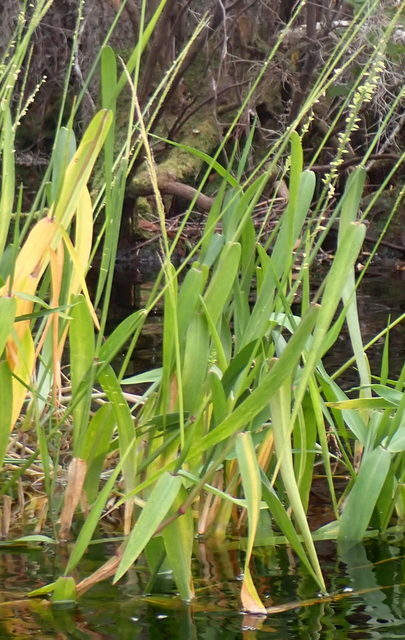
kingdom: Plantae
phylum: Tracheophyta
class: Liliopsida
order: Poales
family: Poaceae
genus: Sacciolepis
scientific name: Sacciolepis striata
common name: American cupscale
